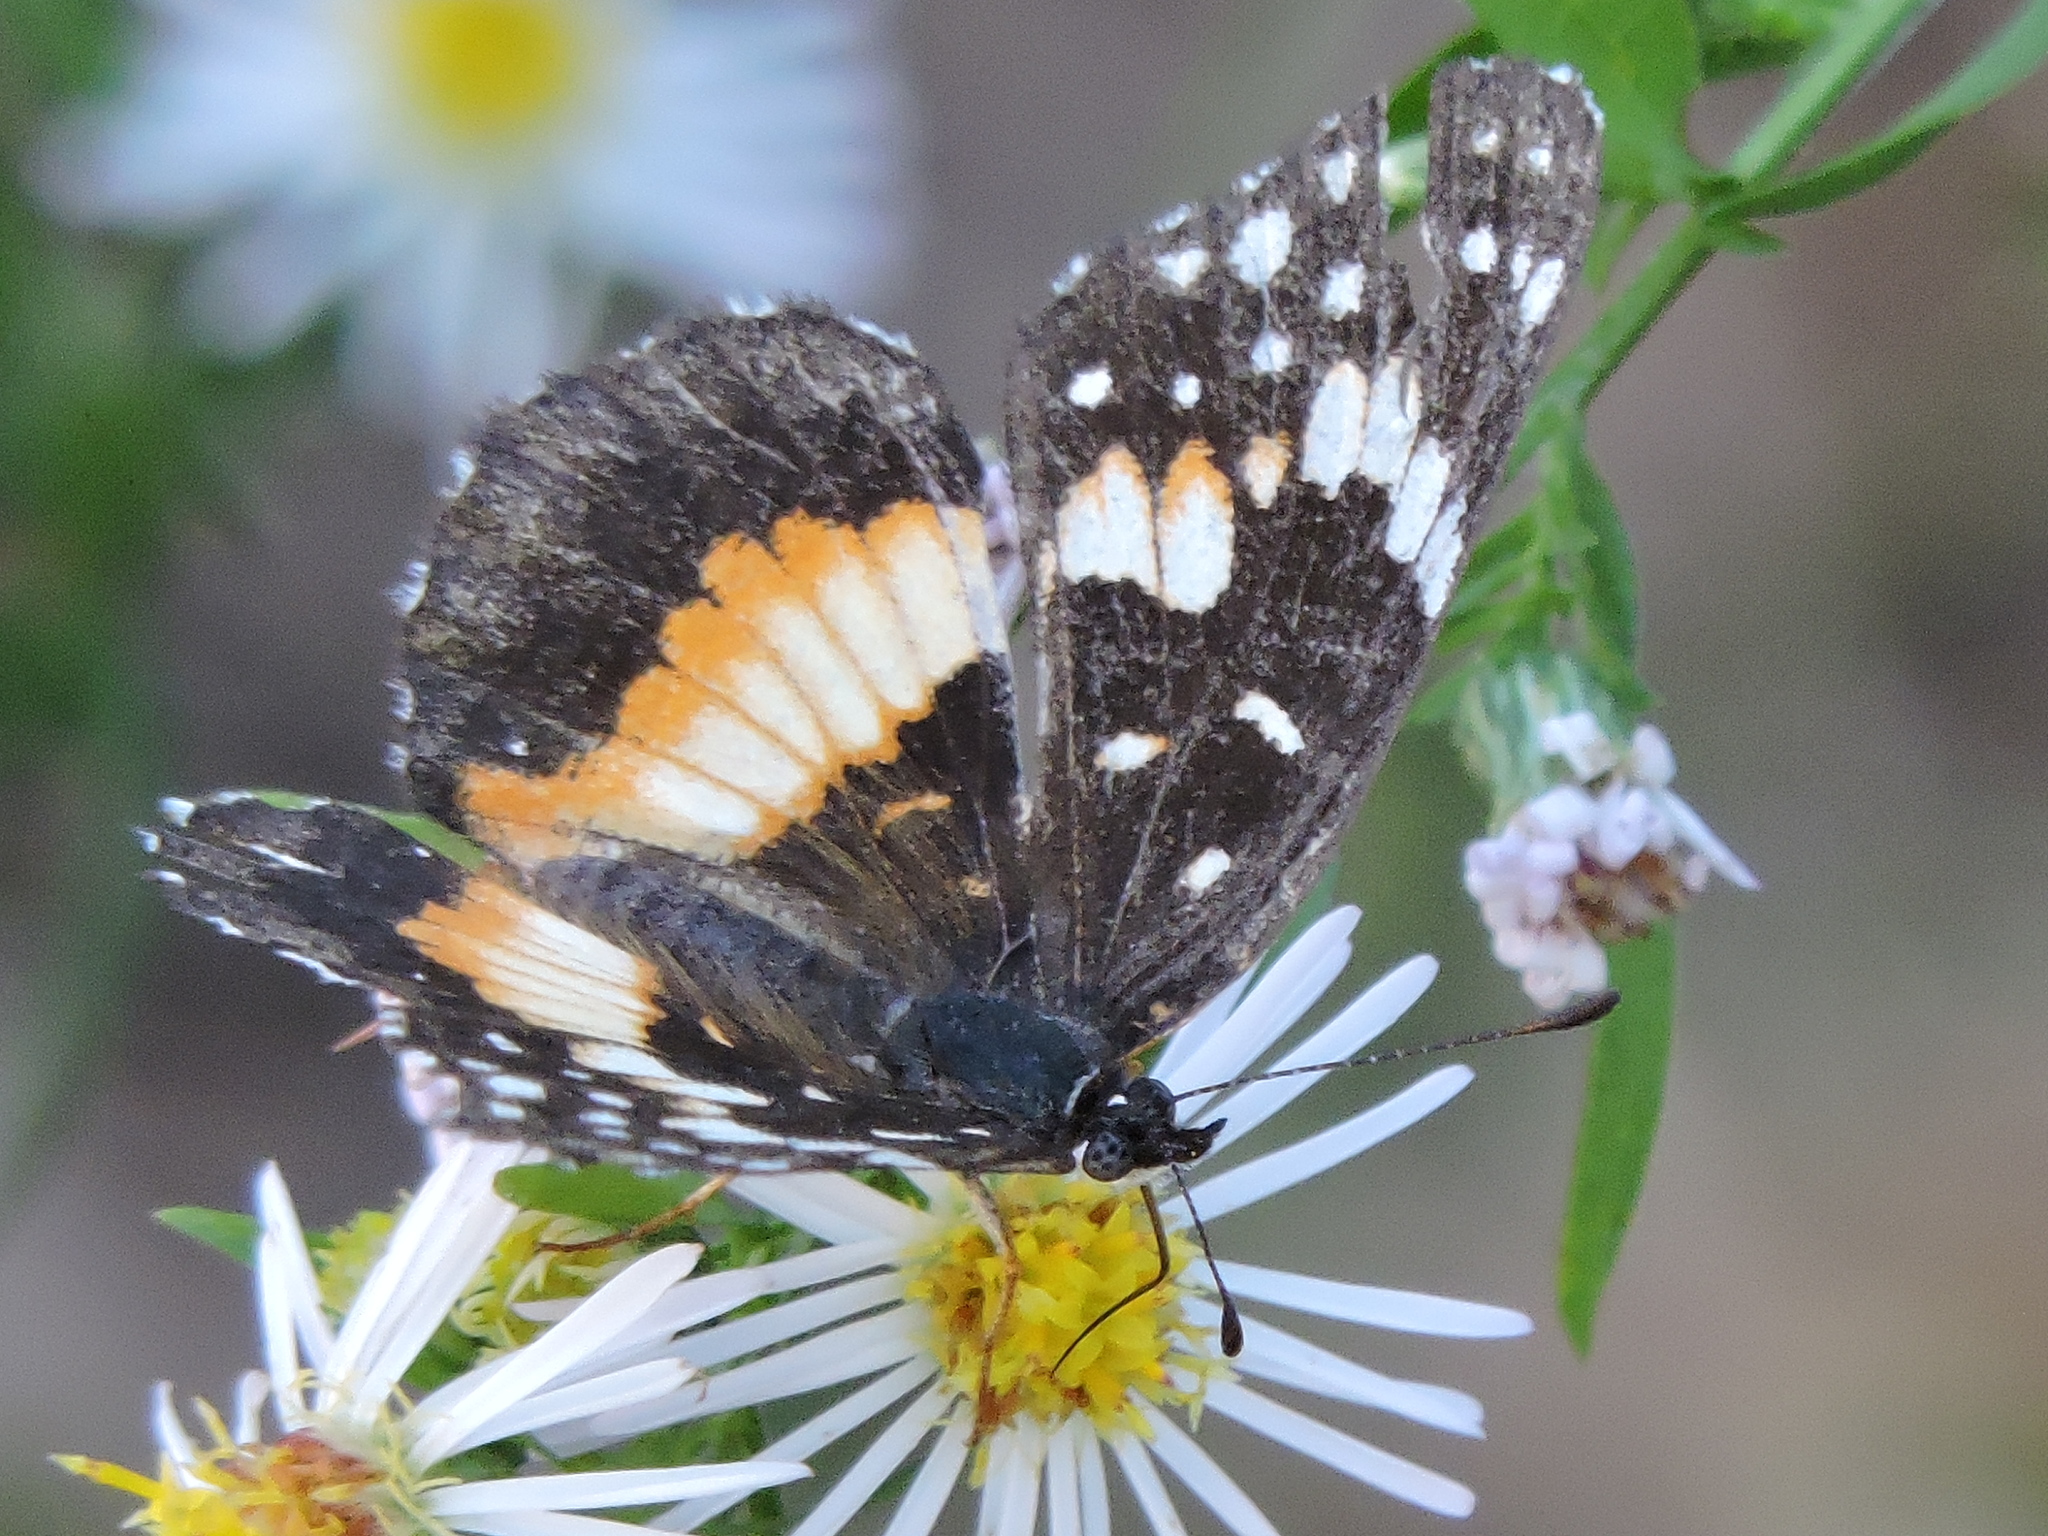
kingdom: Animalia
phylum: Arthropoda
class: Insecta
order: Lepidoptera
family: Nymphalidae
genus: Chlosyne
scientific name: Chlosyne lacinia
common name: Bordered patch
